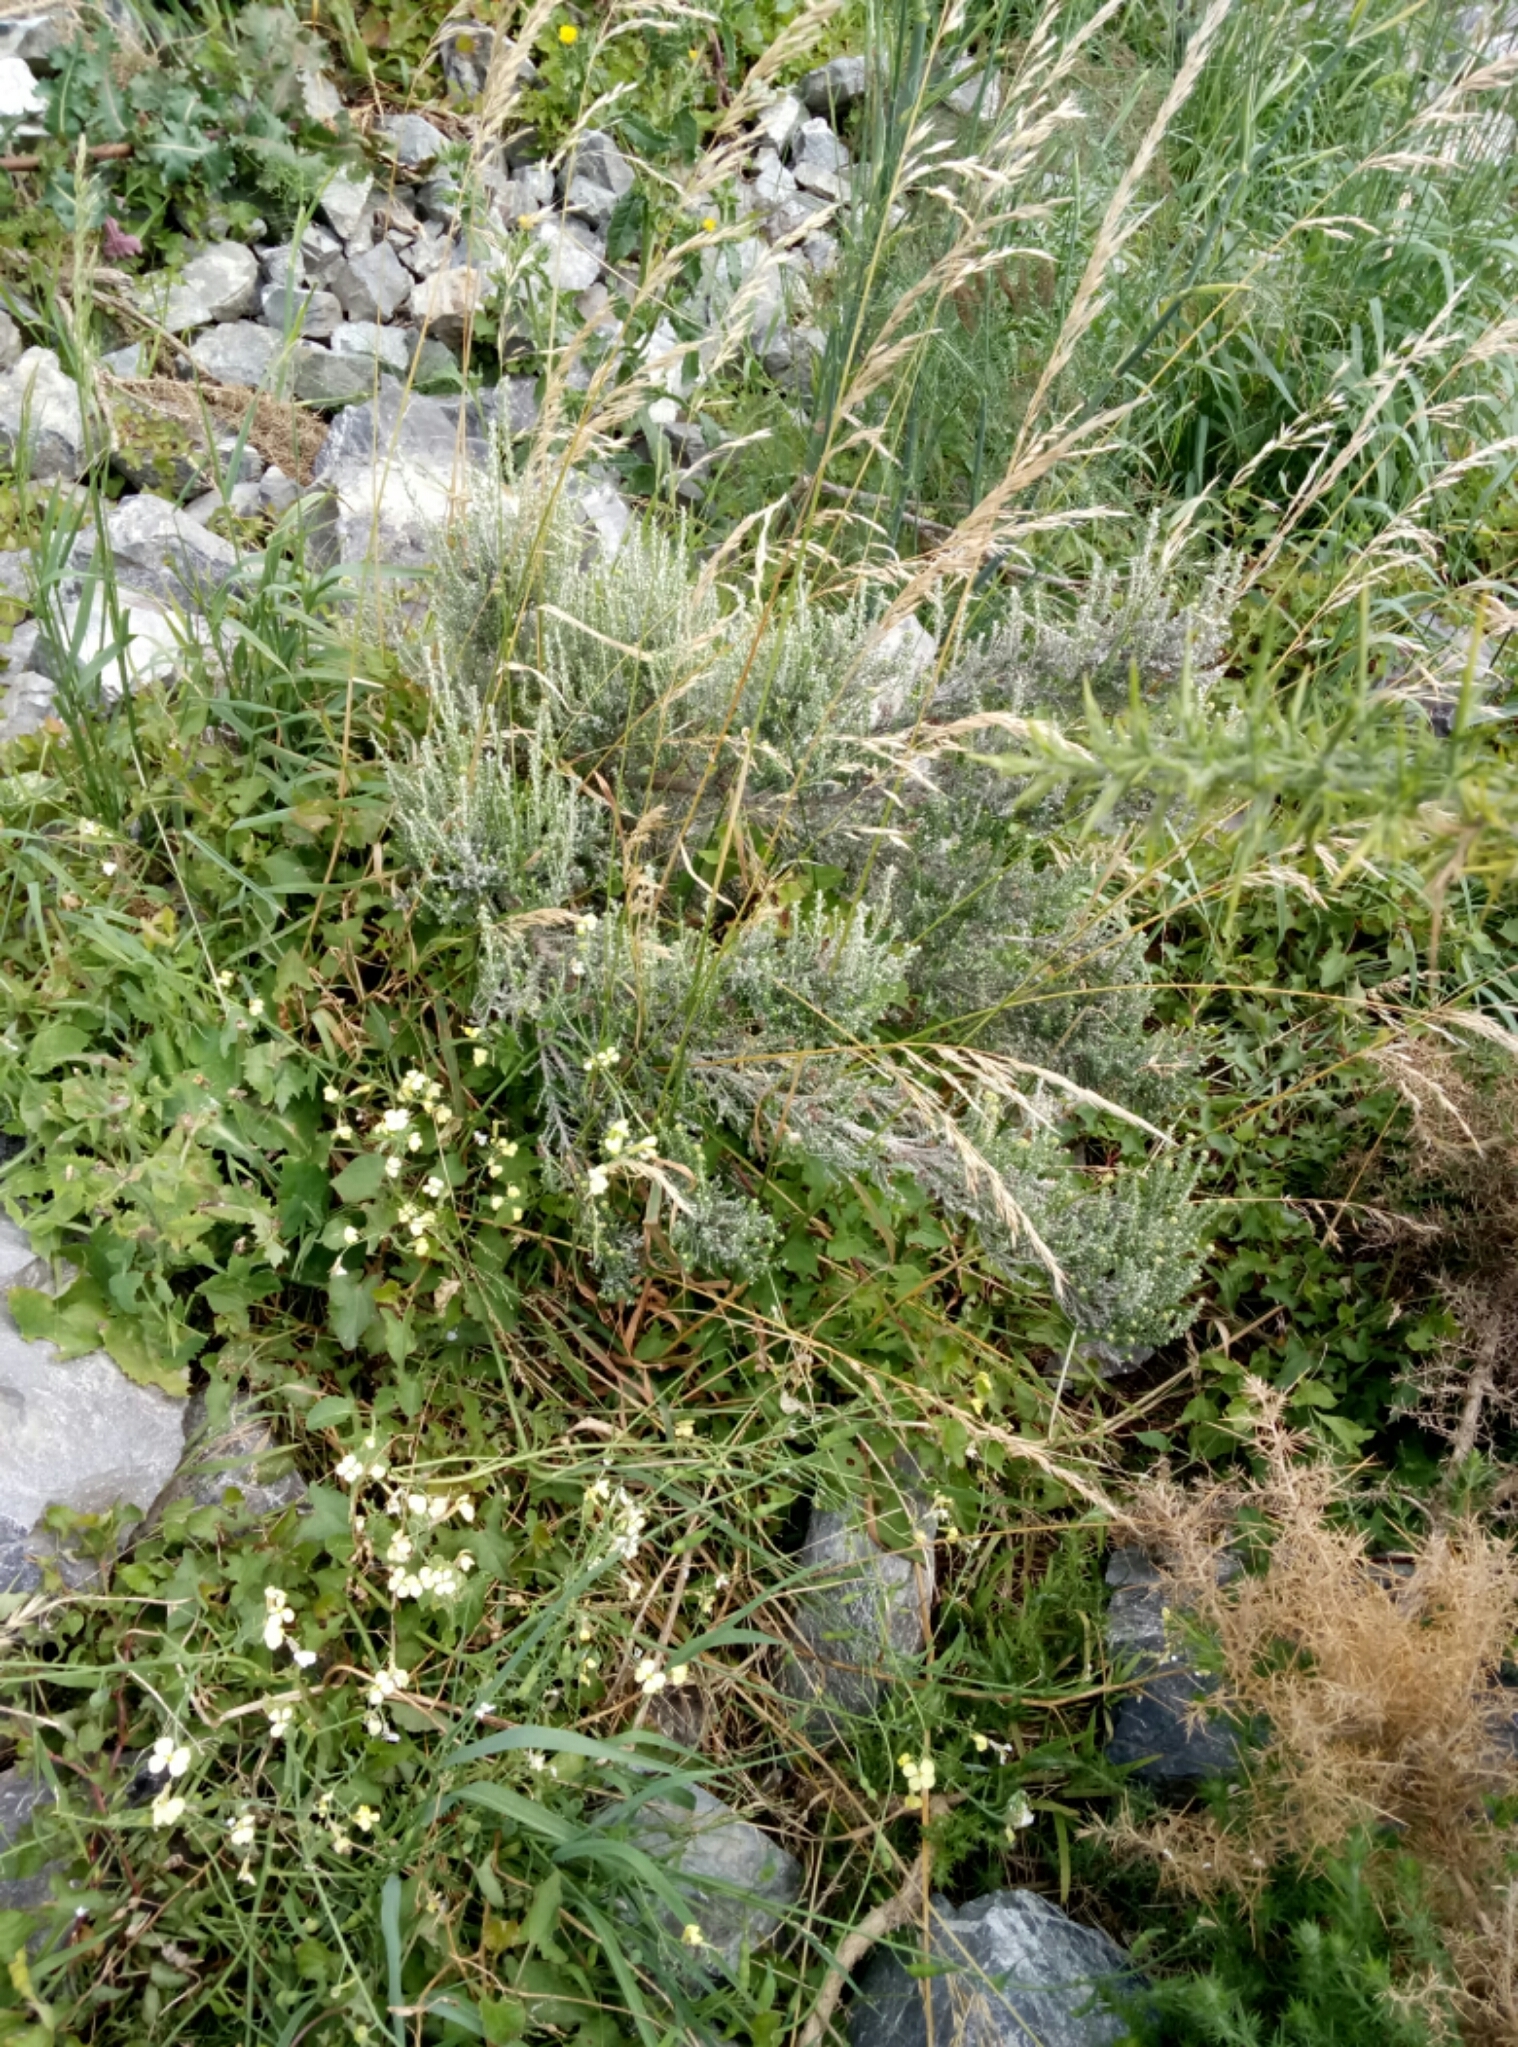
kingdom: Plantae
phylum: Tracheophyta
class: Magnoliopsida
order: Asterales
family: Asteraceae
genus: Ozothamnus
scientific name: Ozothamnus leptophyllus
